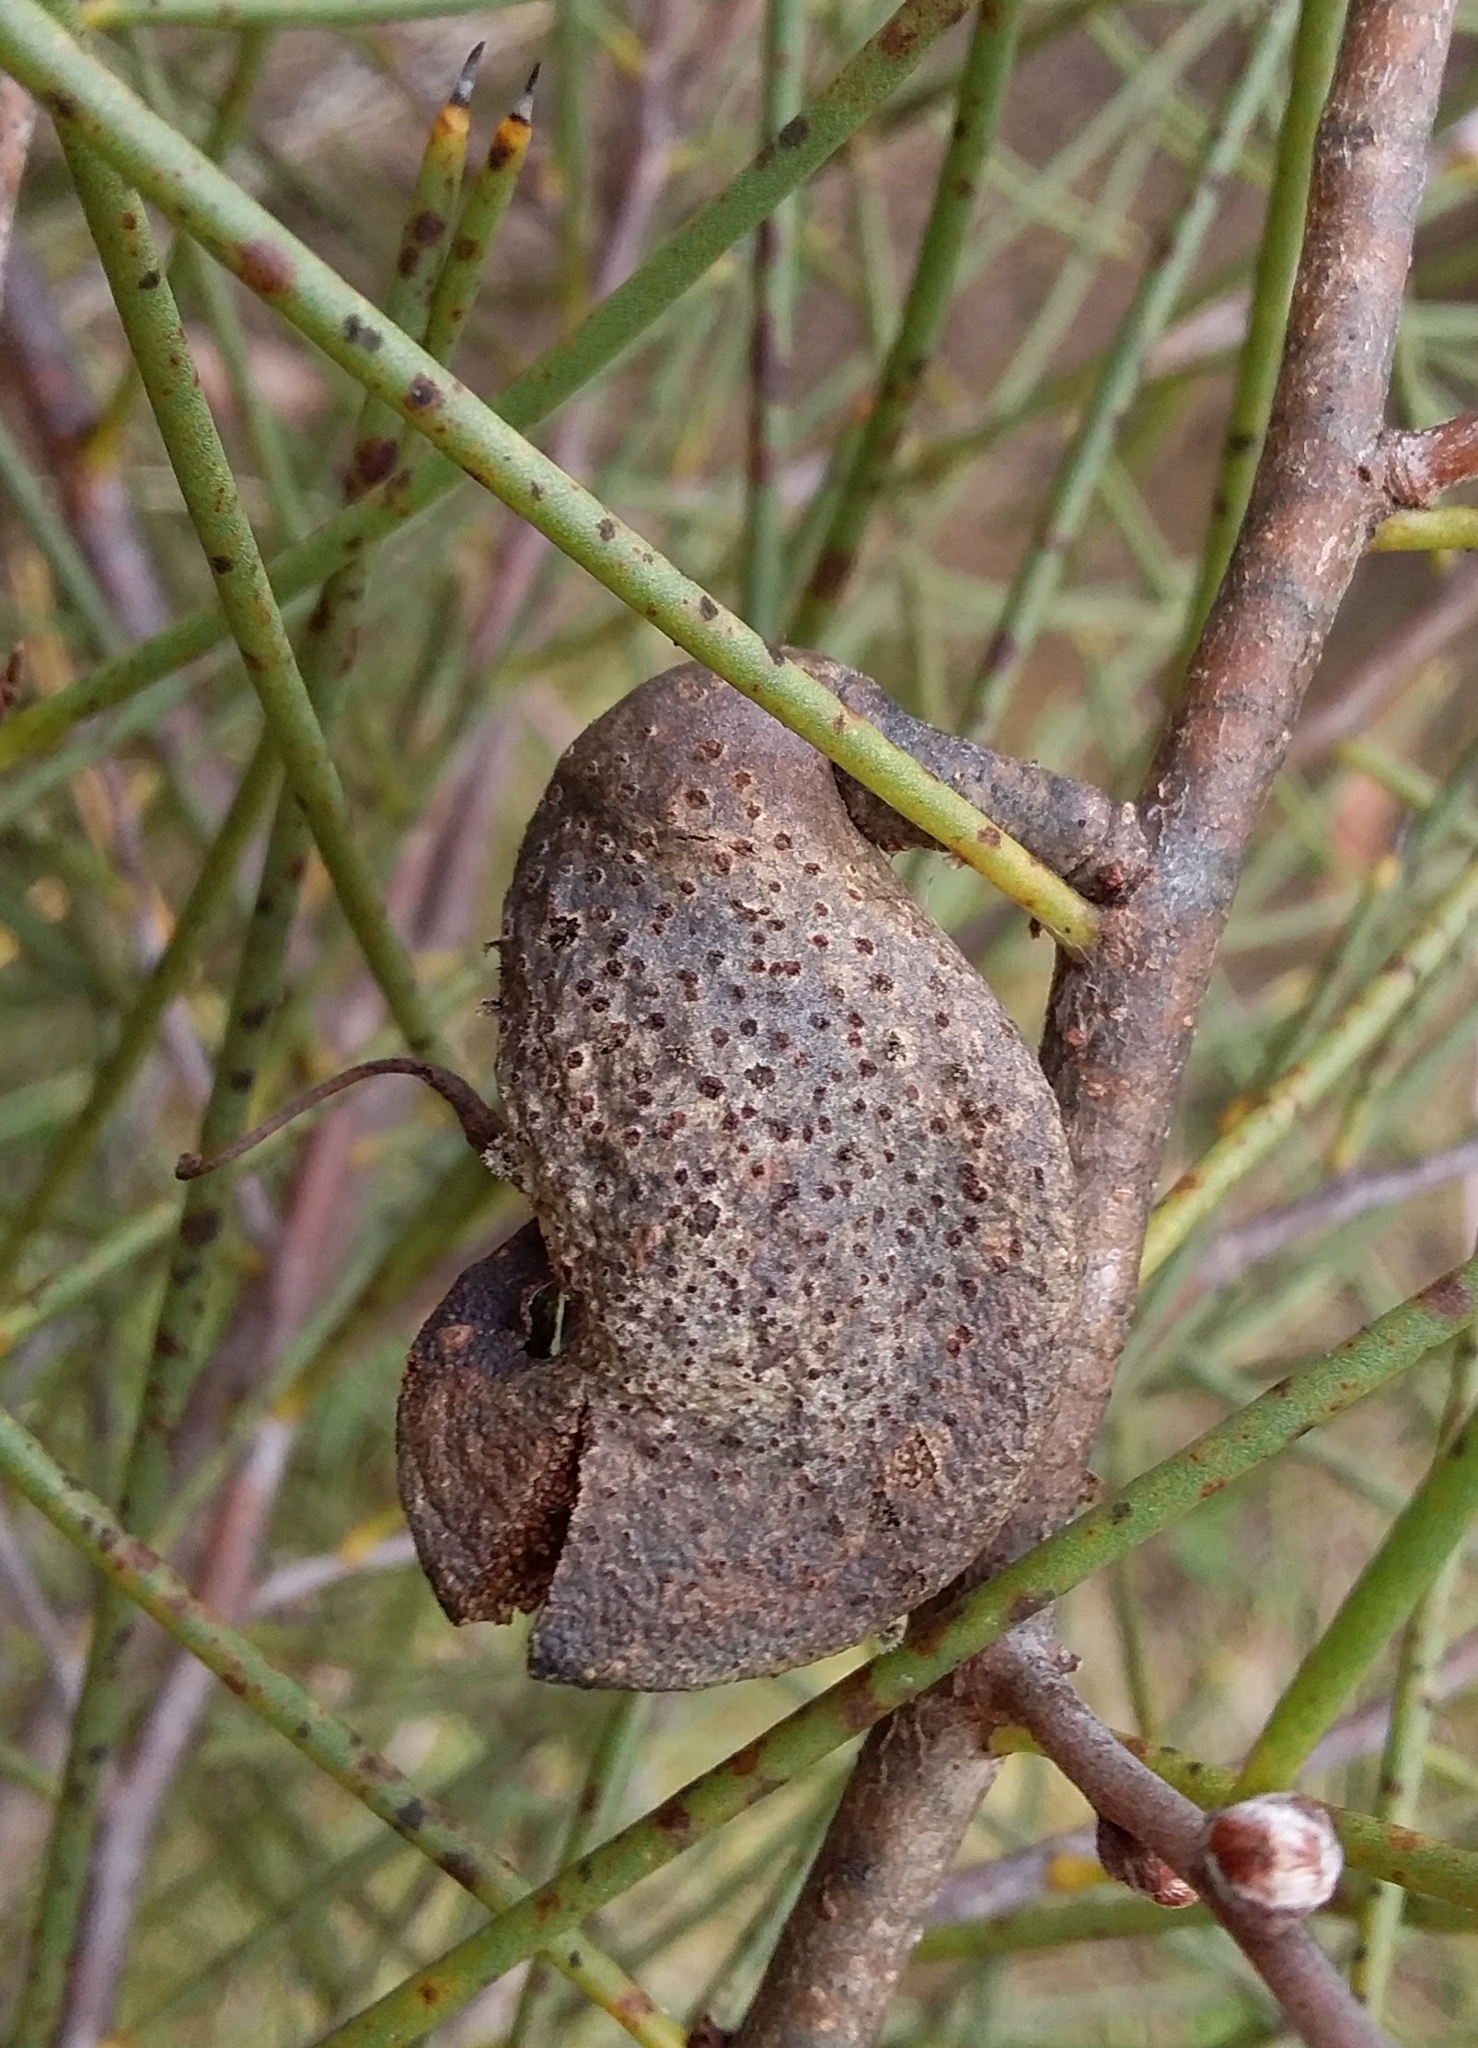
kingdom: Plantae
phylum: Tracheophyta
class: Magnoliopsida
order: Proteales
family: Proteaceae
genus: Hakea
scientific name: Hakea rostrata
